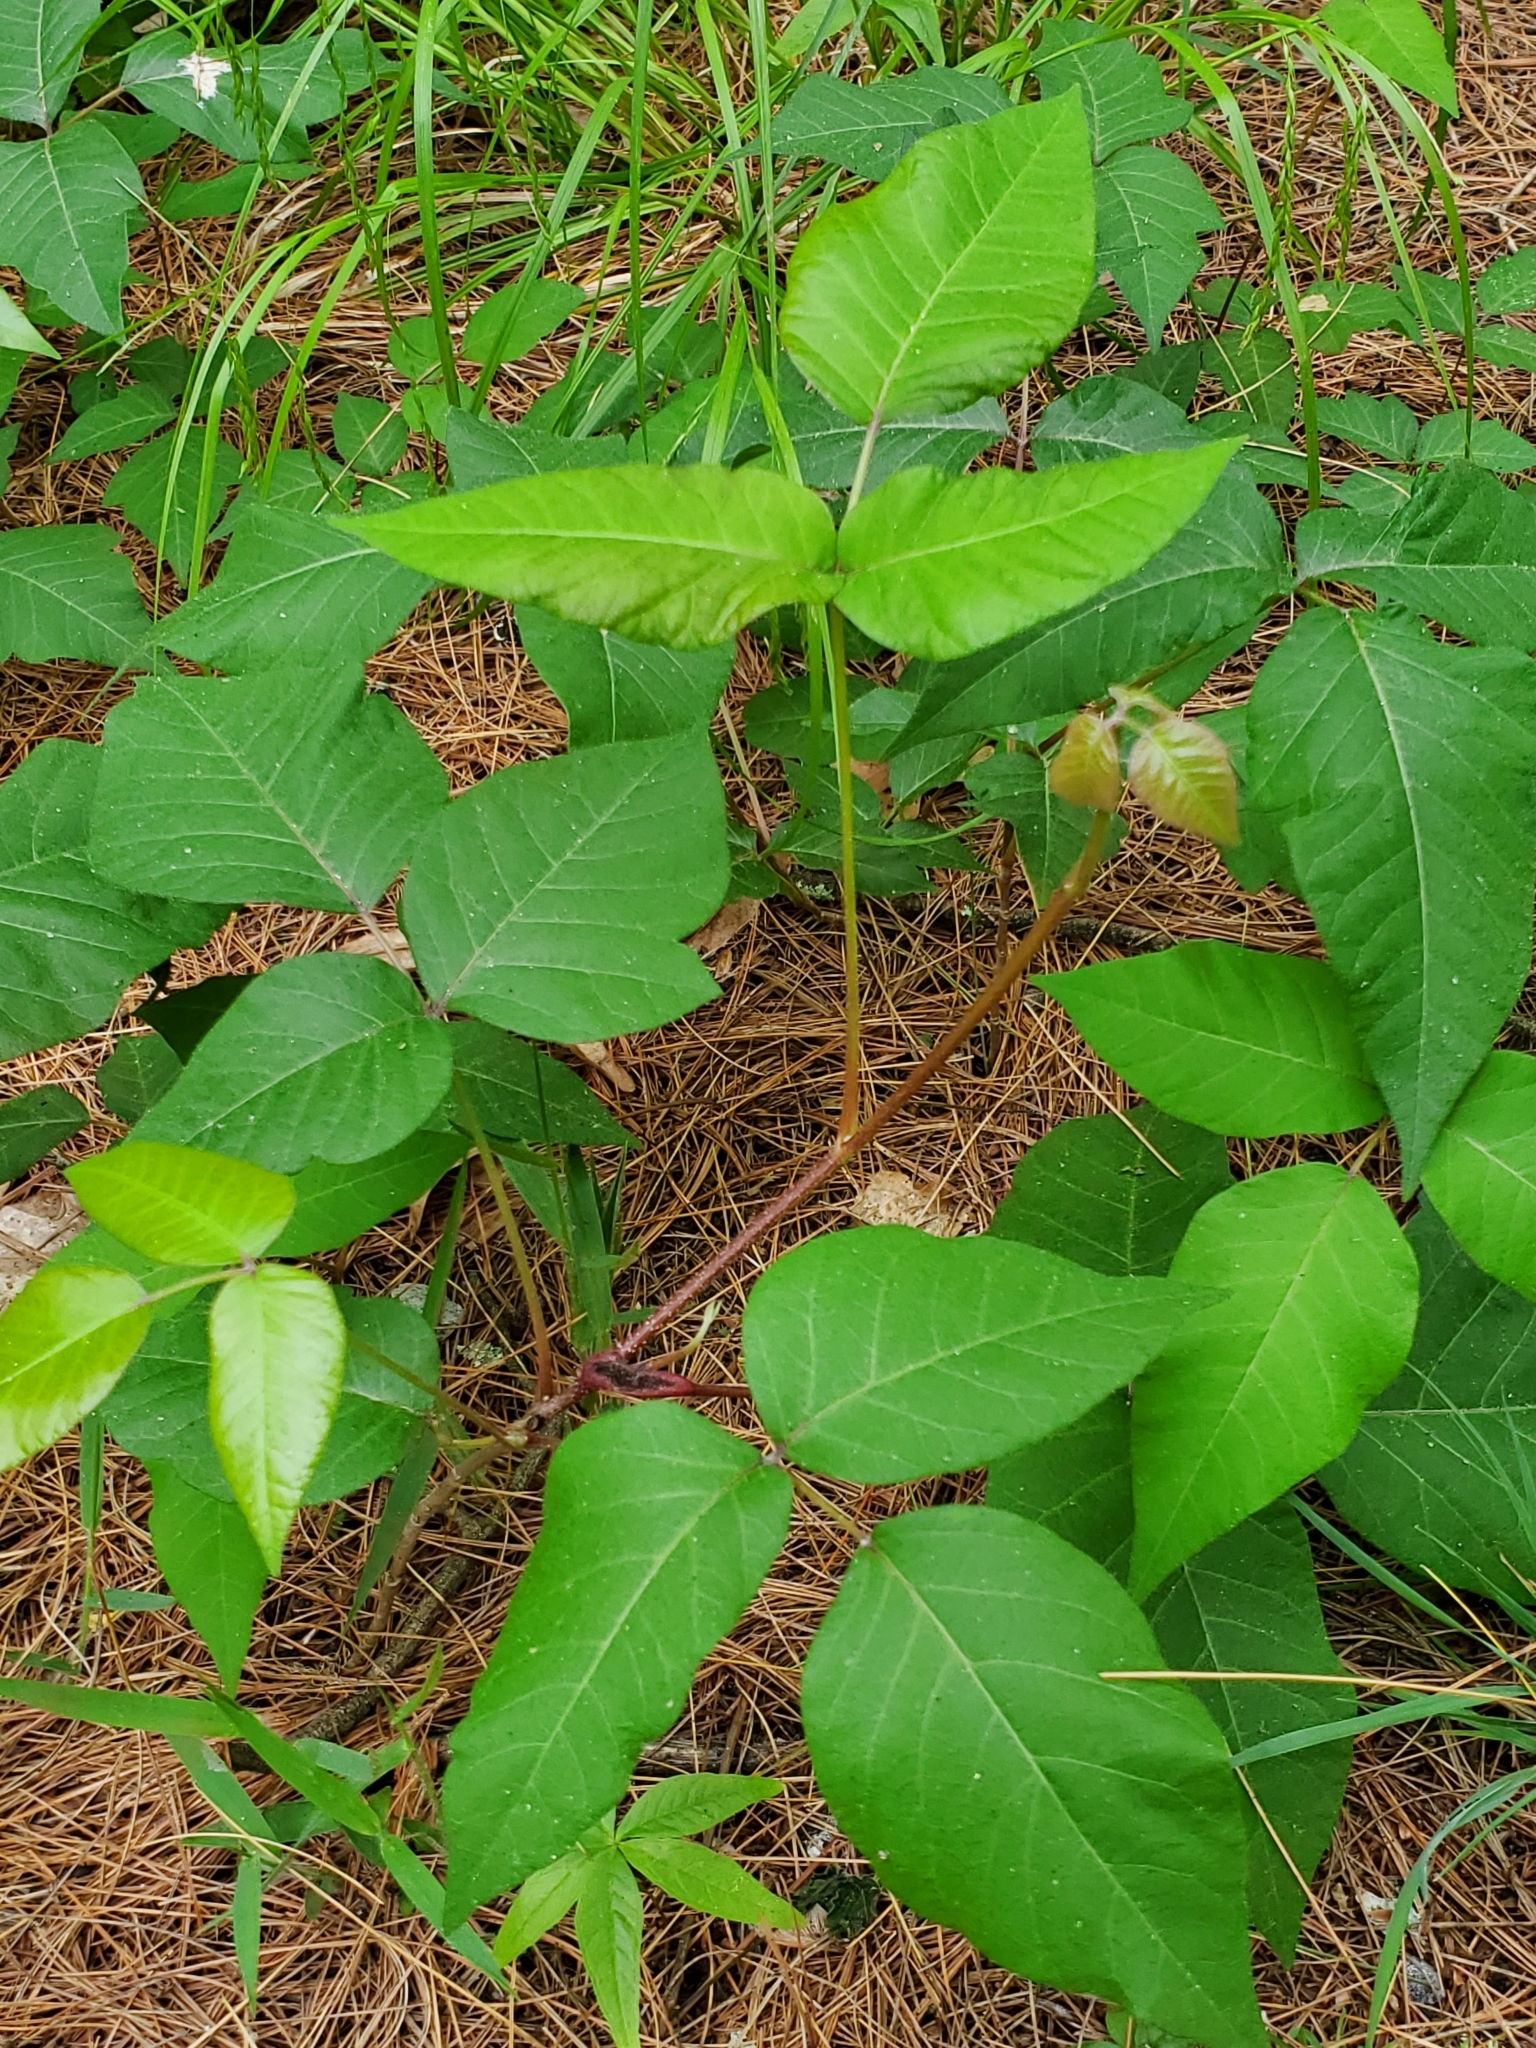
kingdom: Plantae
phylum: Tracheophyta
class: Magnoliopsida
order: Sapindales
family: Anacardiaceae
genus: Toxicodendron
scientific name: Toxicodendron radicans
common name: Poison ivy
